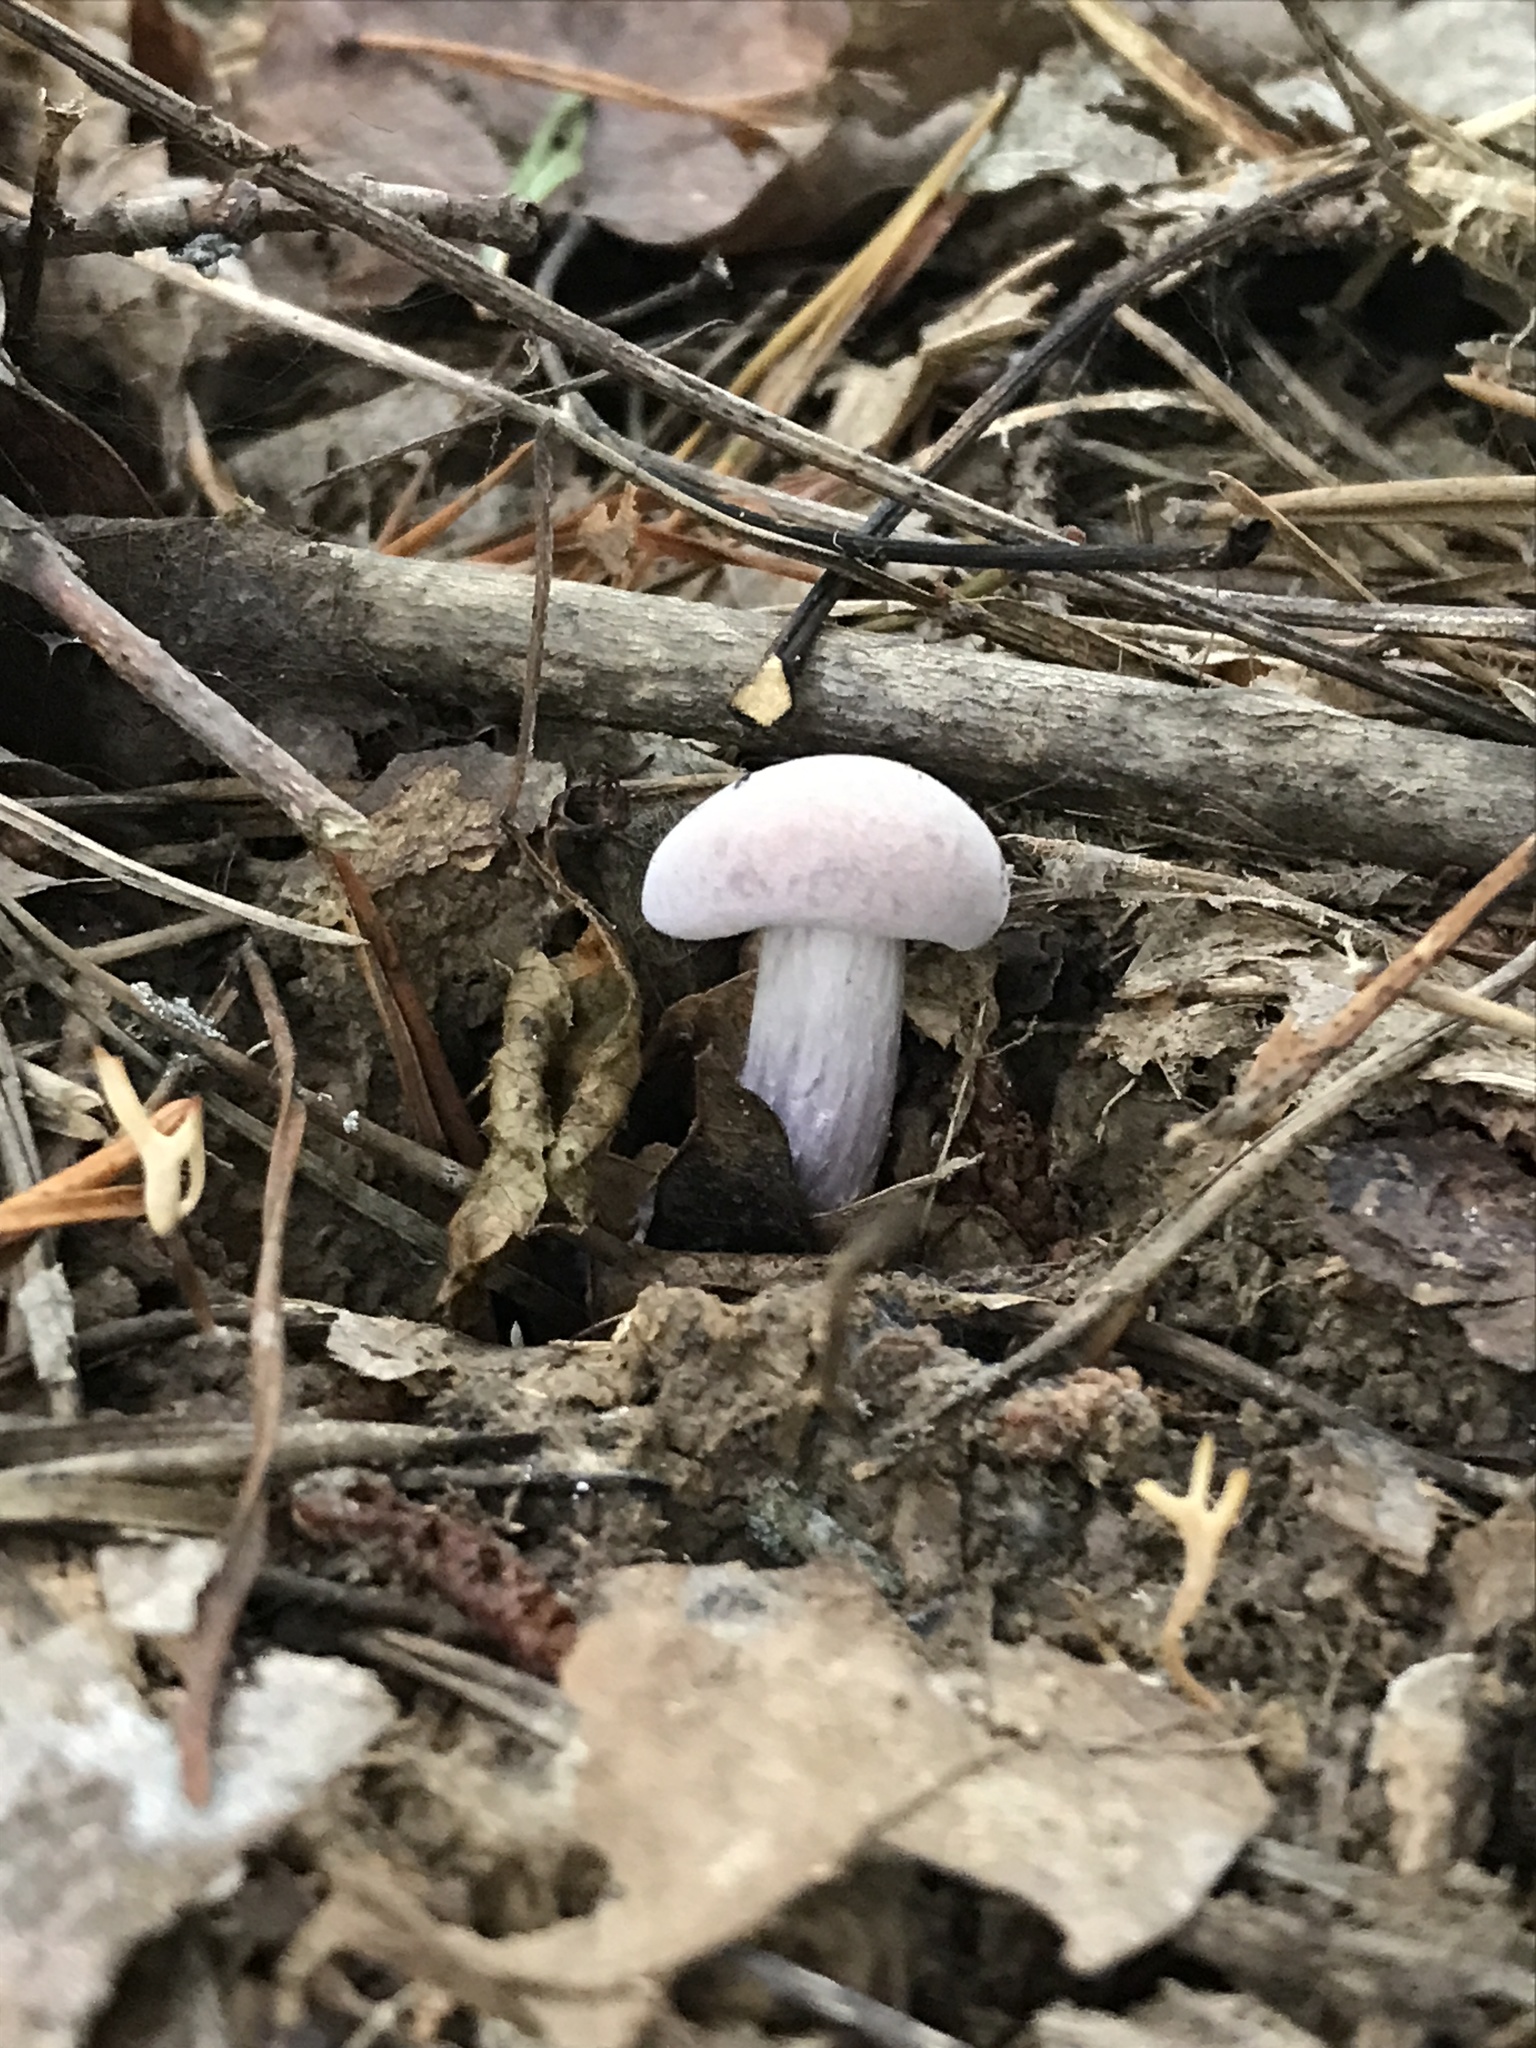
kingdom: Fungi
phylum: Basidiomycota
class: Agaricomycetes
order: Agaricales
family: Hydnangiaceae
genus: Laccaria
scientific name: Laccaria ochropurpurea
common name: Purple laccaria
